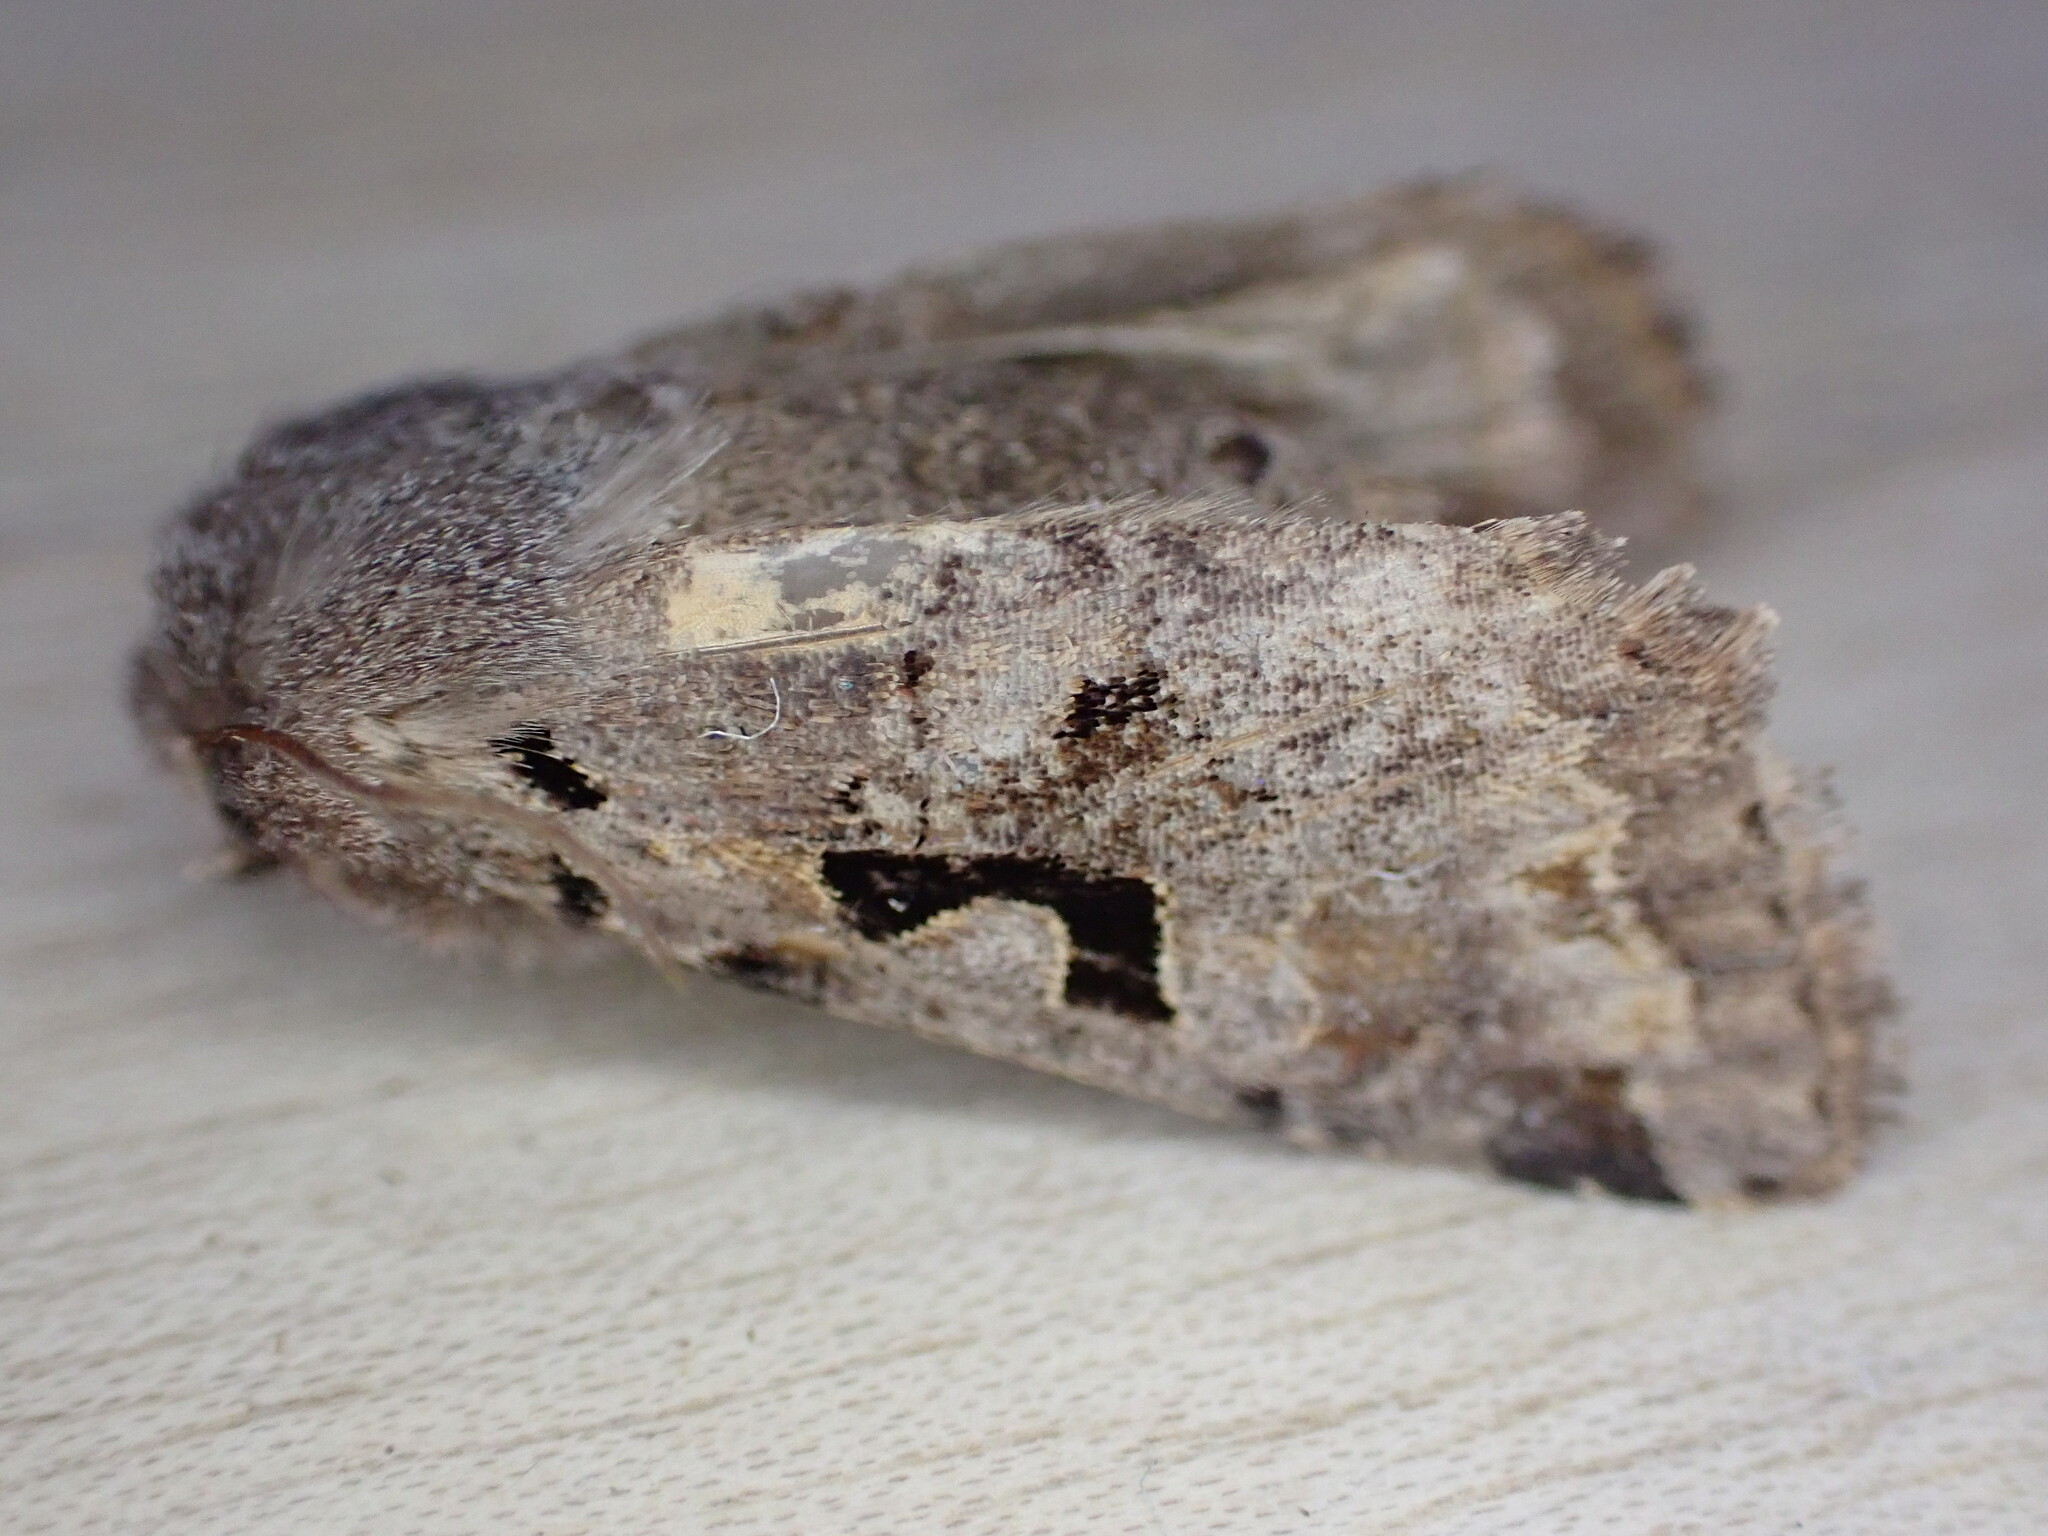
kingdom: Animalia
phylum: Arthropoda
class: Insecta
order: Lepidoptera
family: Noctuidae
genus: Orthosia
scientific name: Orthosia gothica
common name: Hebrew character
